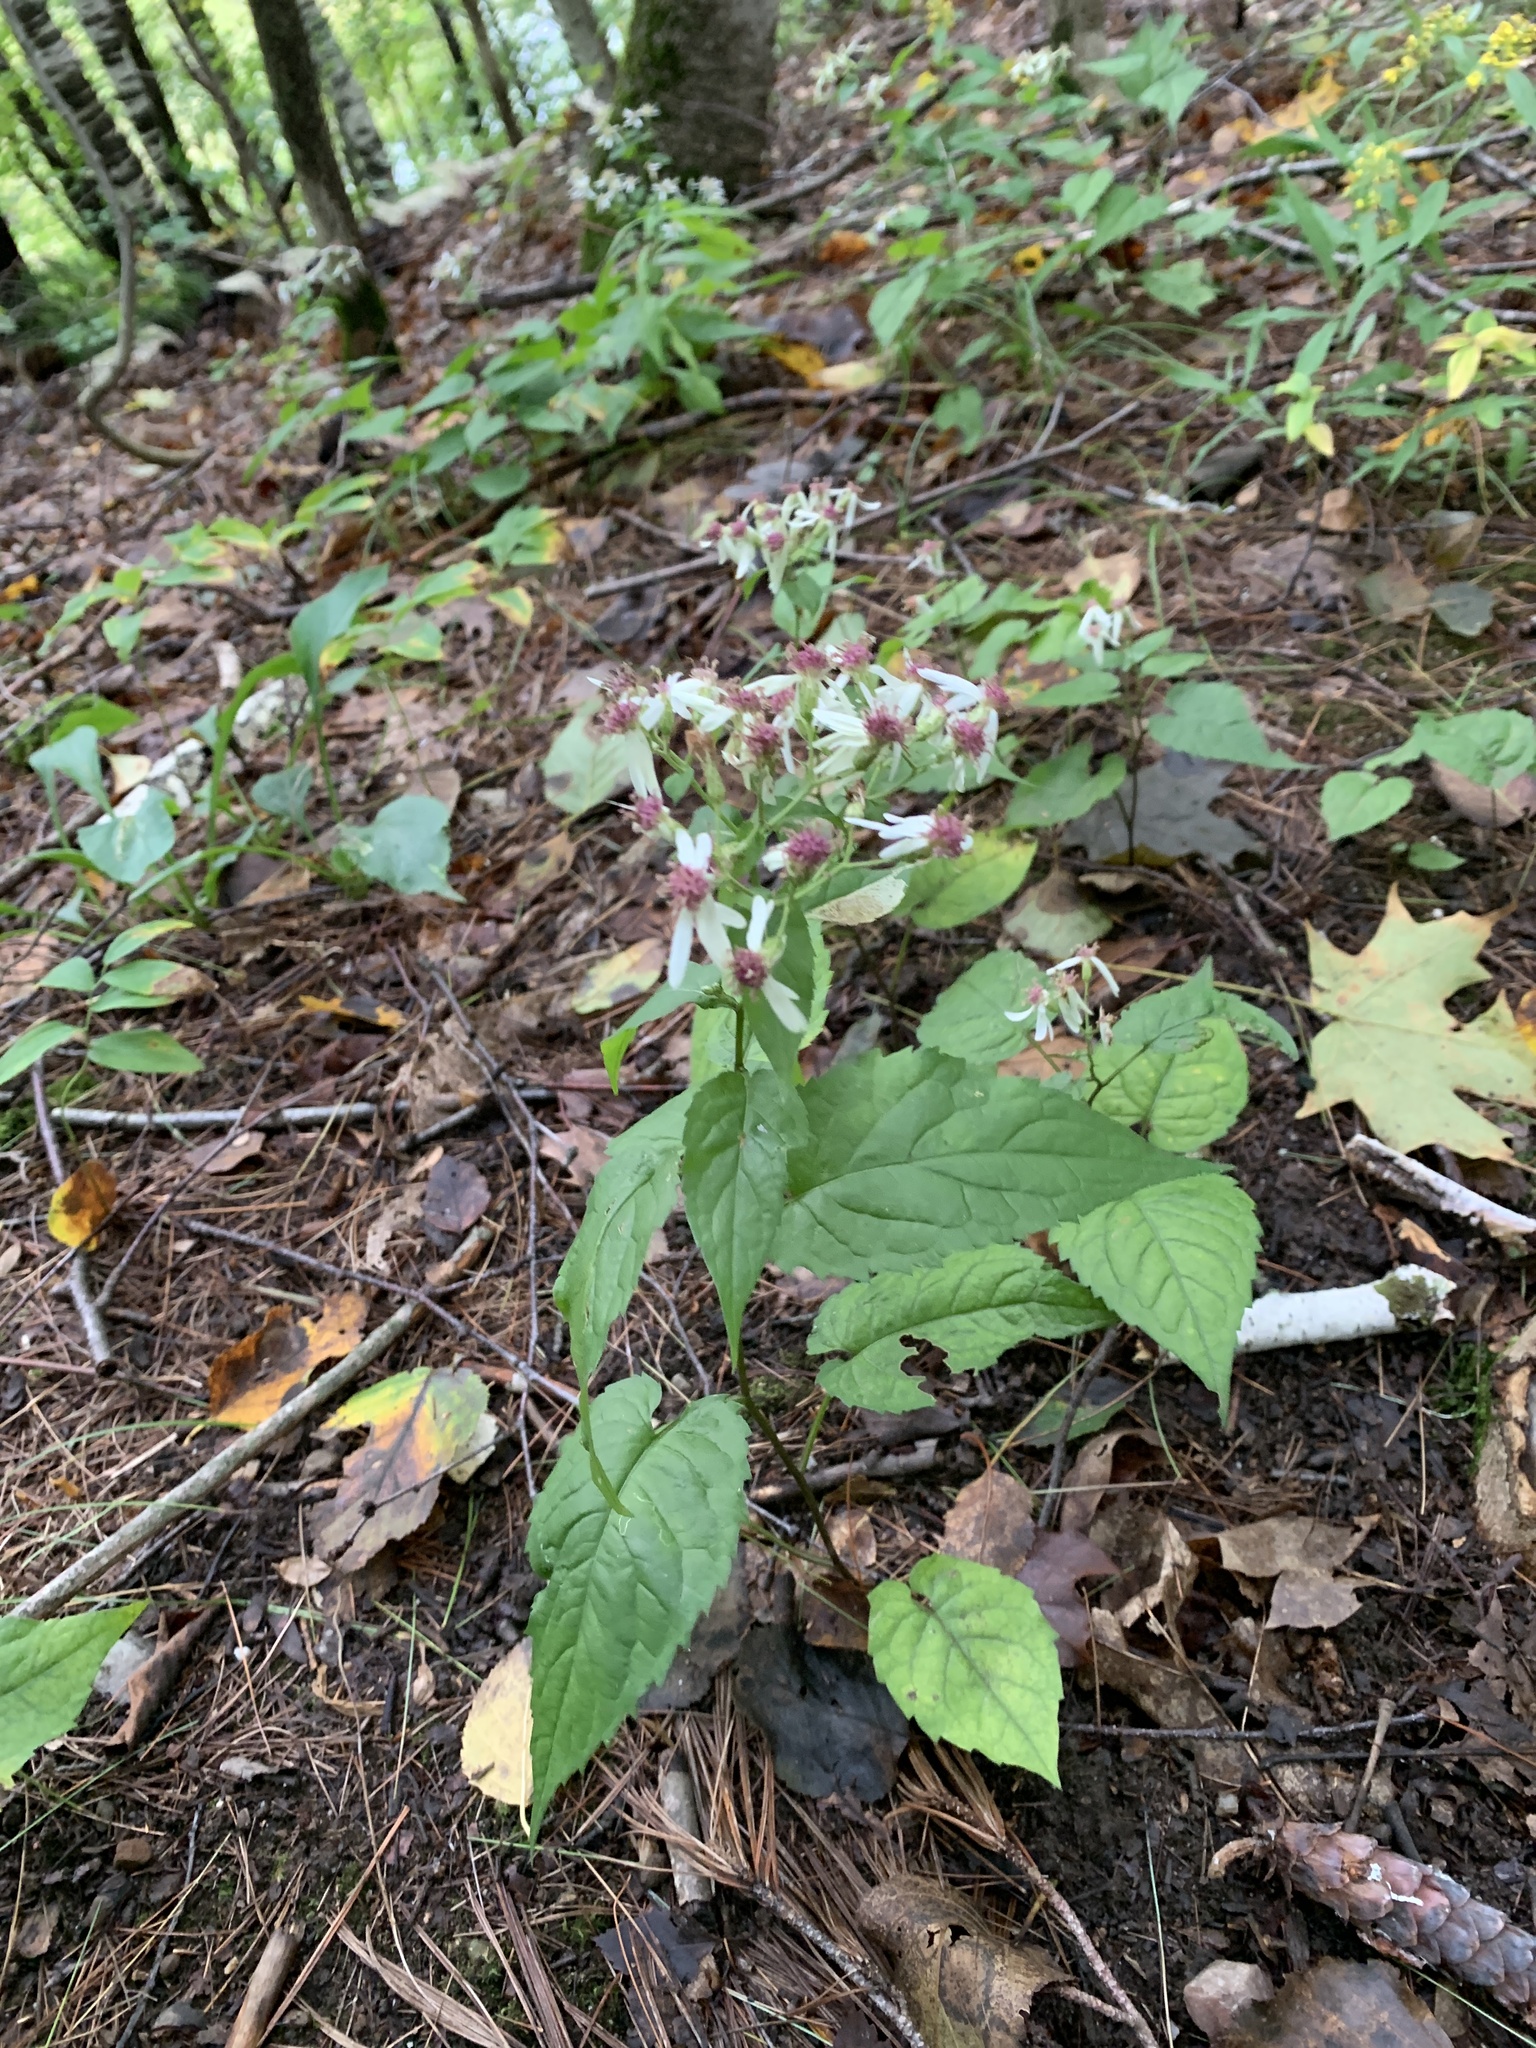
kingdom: Plantae
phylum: Tracheophyta
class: Magnoliopsida
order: Asterales
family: Asteraceae
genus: Eurybia
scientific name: Eurybia divaricata
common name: White wood aster
